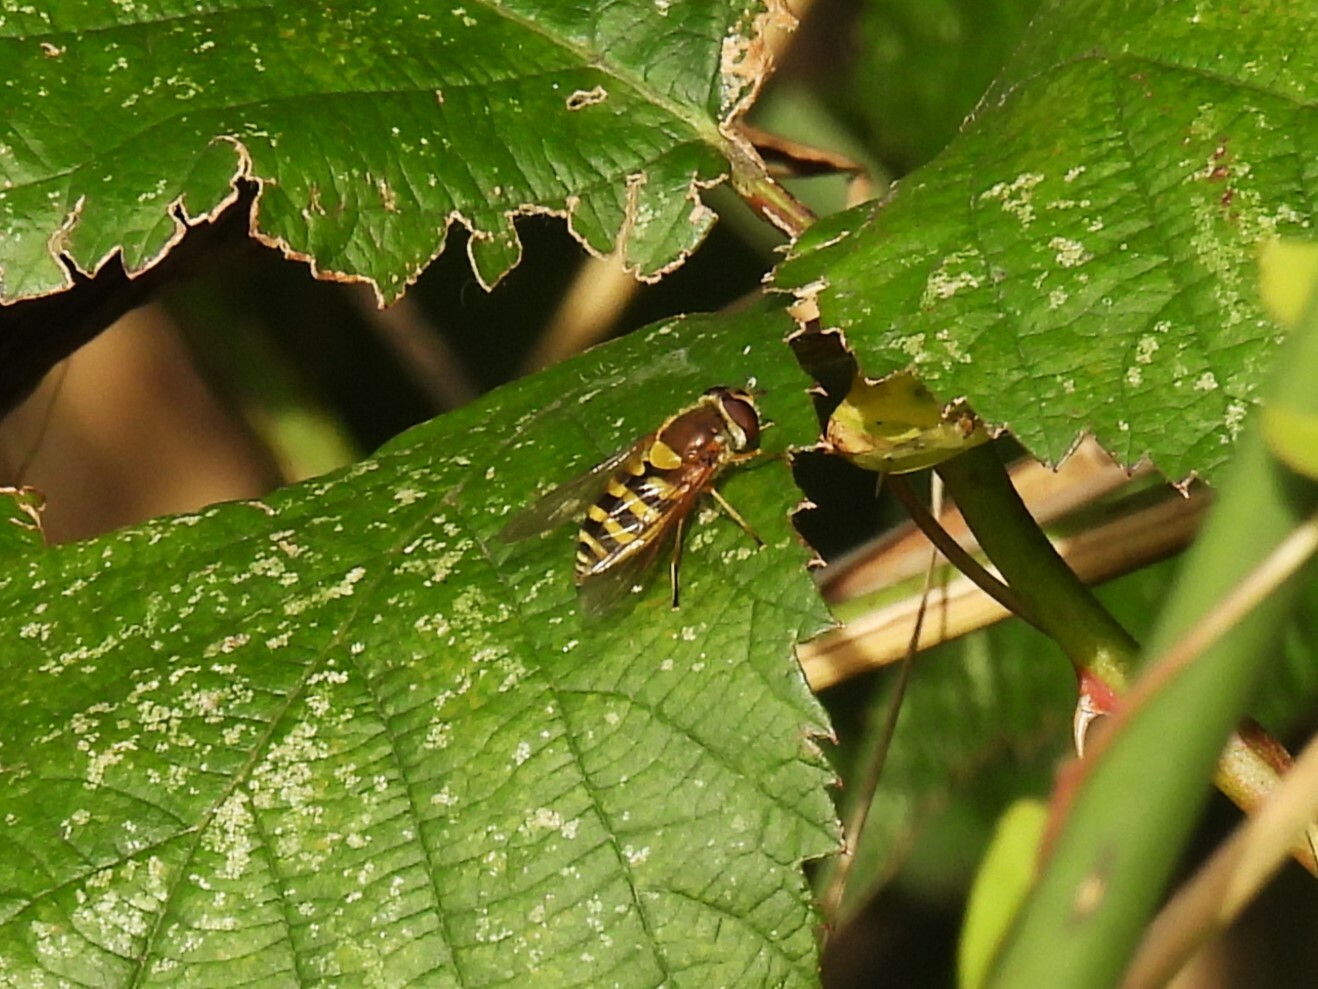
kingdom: Animalia
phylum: Arthropoda
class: Insecta
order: Diptera
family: Syrphidae
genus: Syrphus
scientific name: Syrphus
